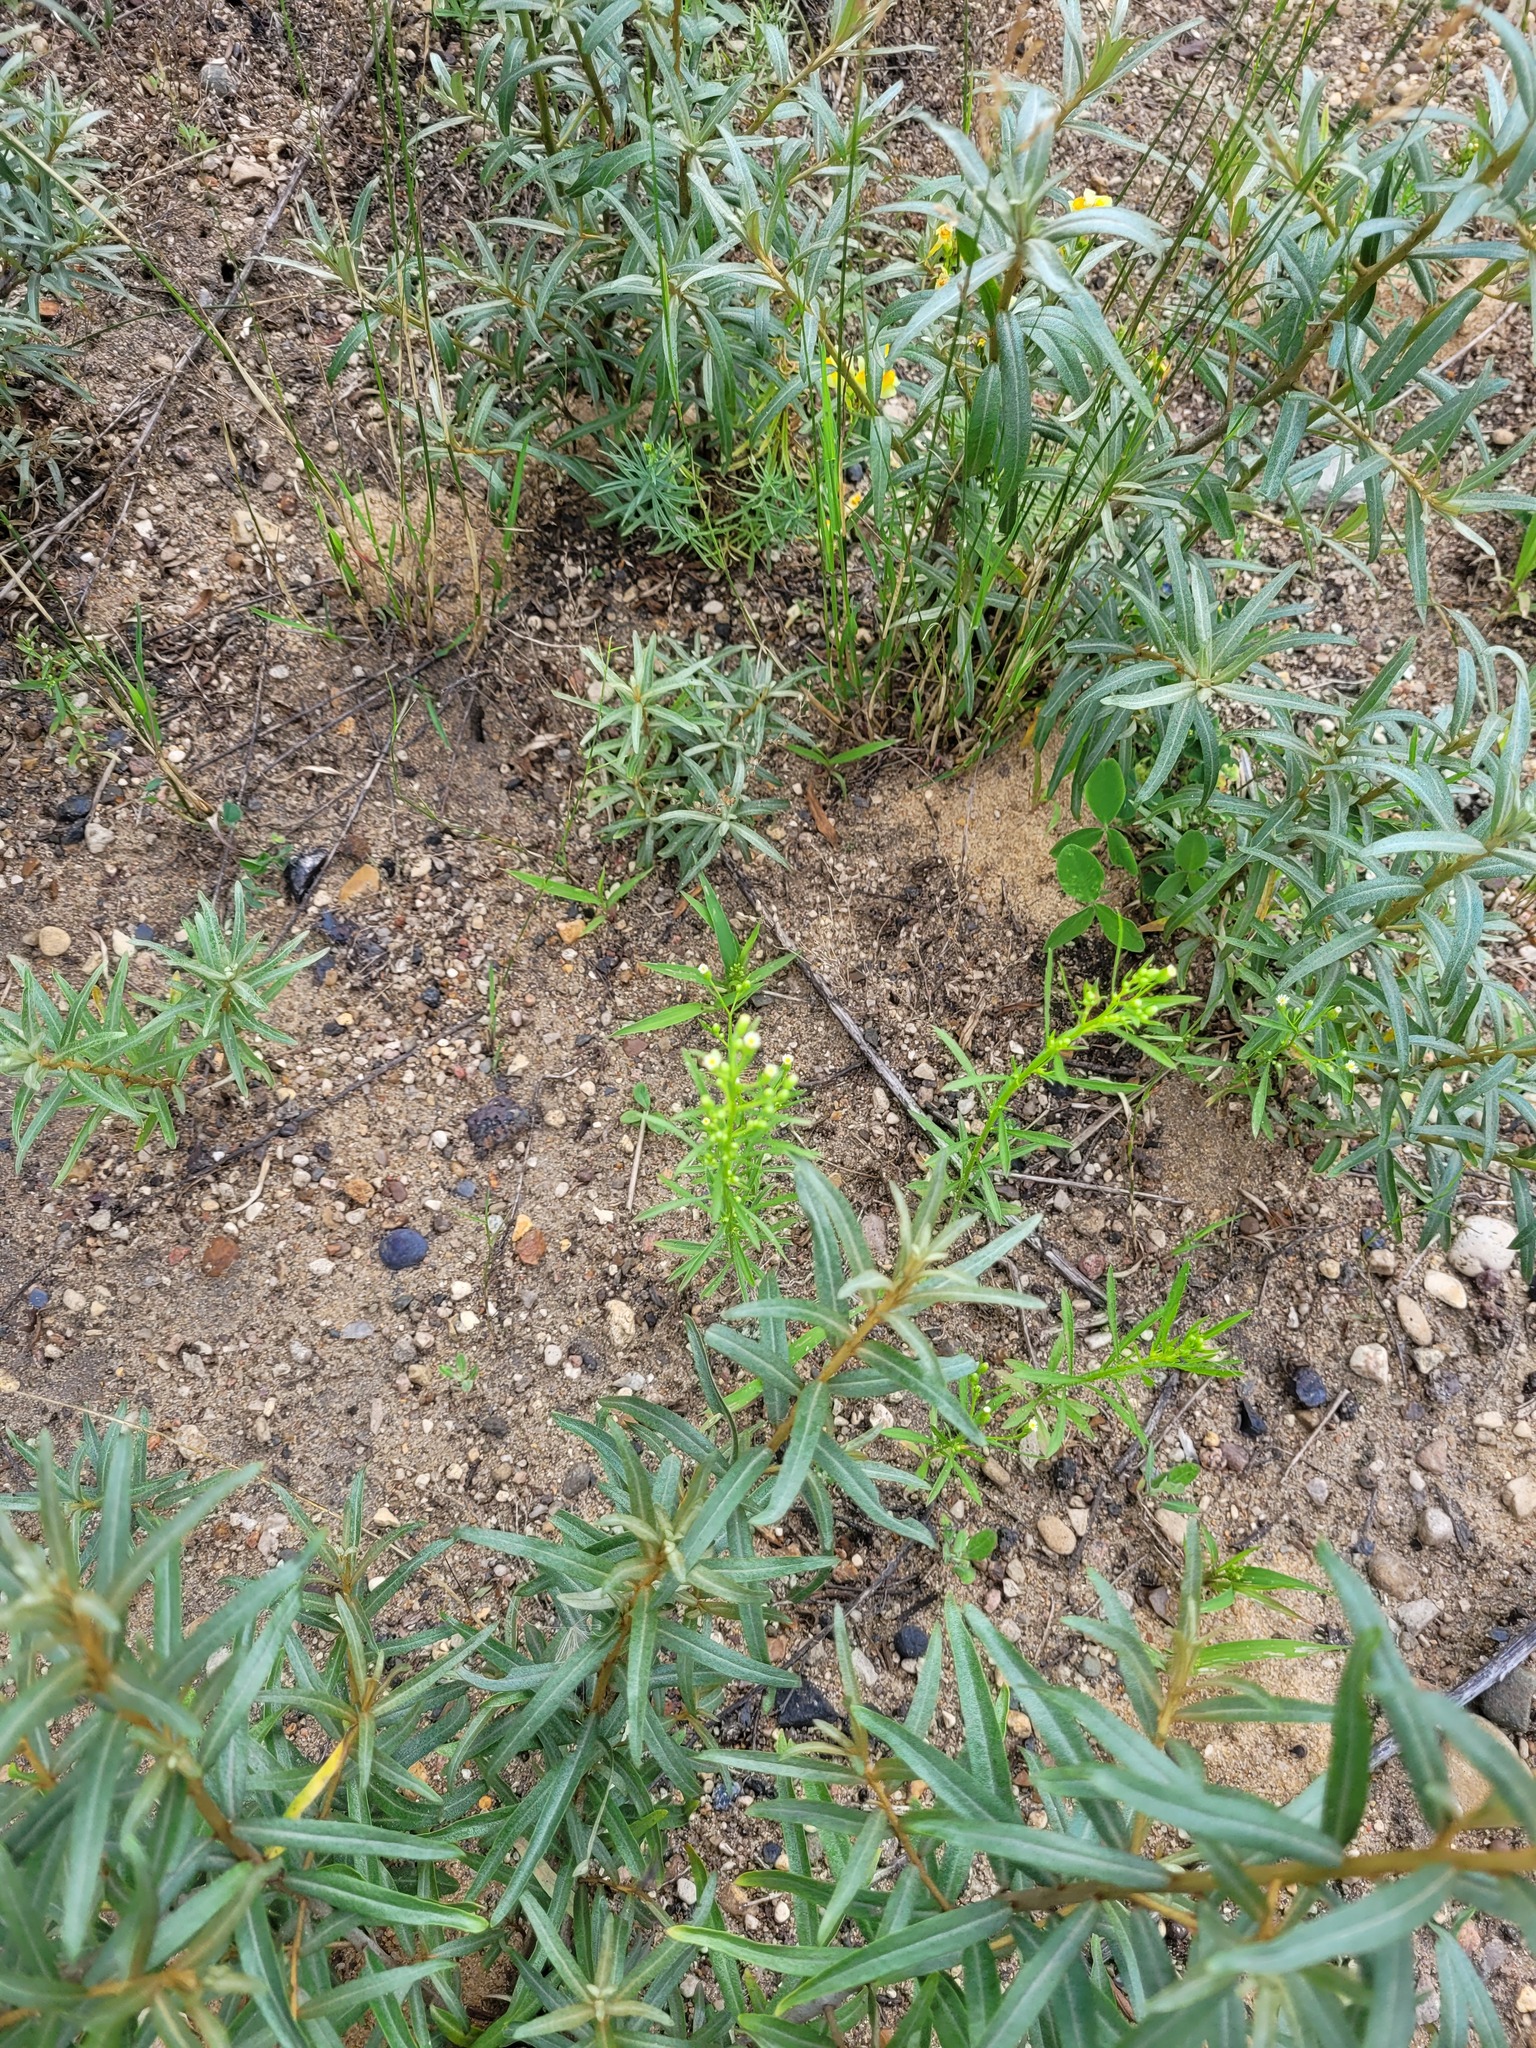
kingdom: Plantae
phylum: Tracheophyta
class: Magnoliopsida
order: Asterales
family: Asteraceae
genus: Erigeron
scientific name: Erigeron canadensis
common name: Canadian fleabane
